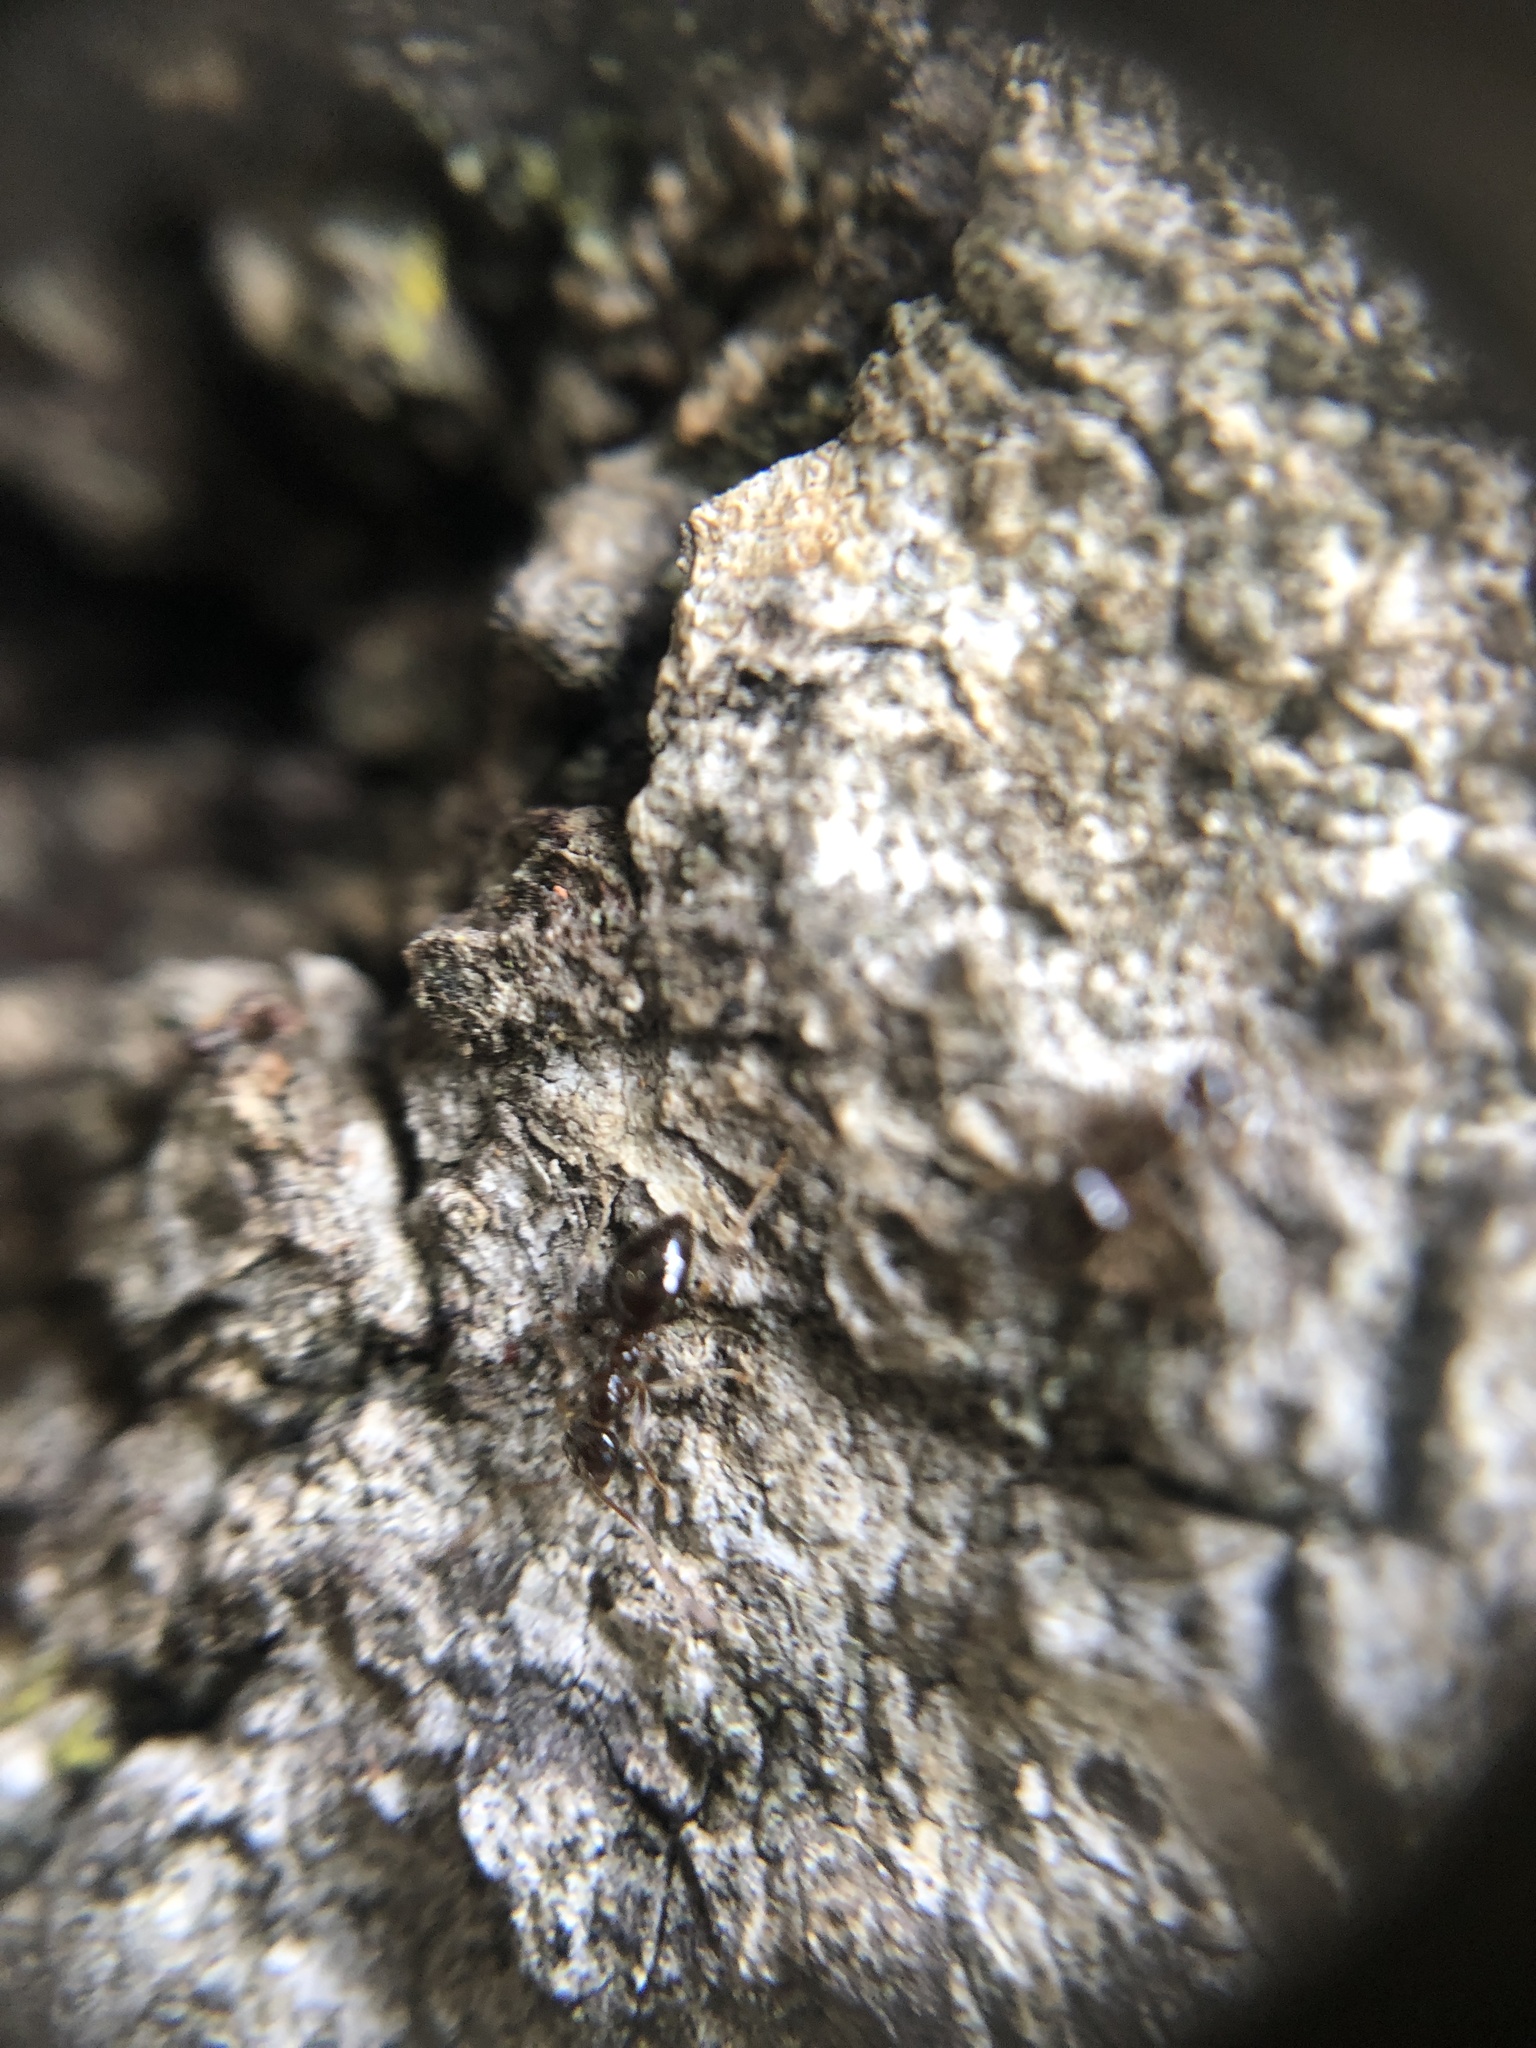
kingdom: Animalia
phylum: Arthropoda
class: Insecta
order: Hymenoptera
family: Formicidae
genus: Prenolepis
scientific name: Prenolepis imparis
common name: Small honey ant
